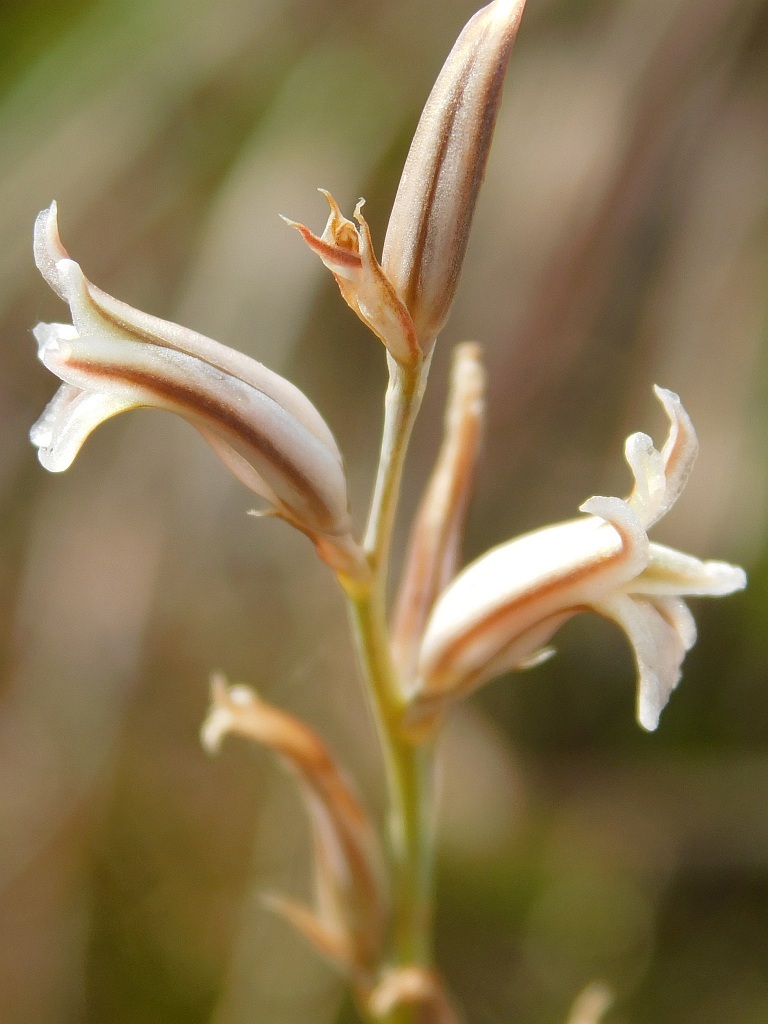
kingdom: Plantae
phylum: Tracheophyta
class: Liliopsida
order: Asparagales
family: Asphodelaceae
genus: Haworthia
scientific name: Haworthia mirabilis
